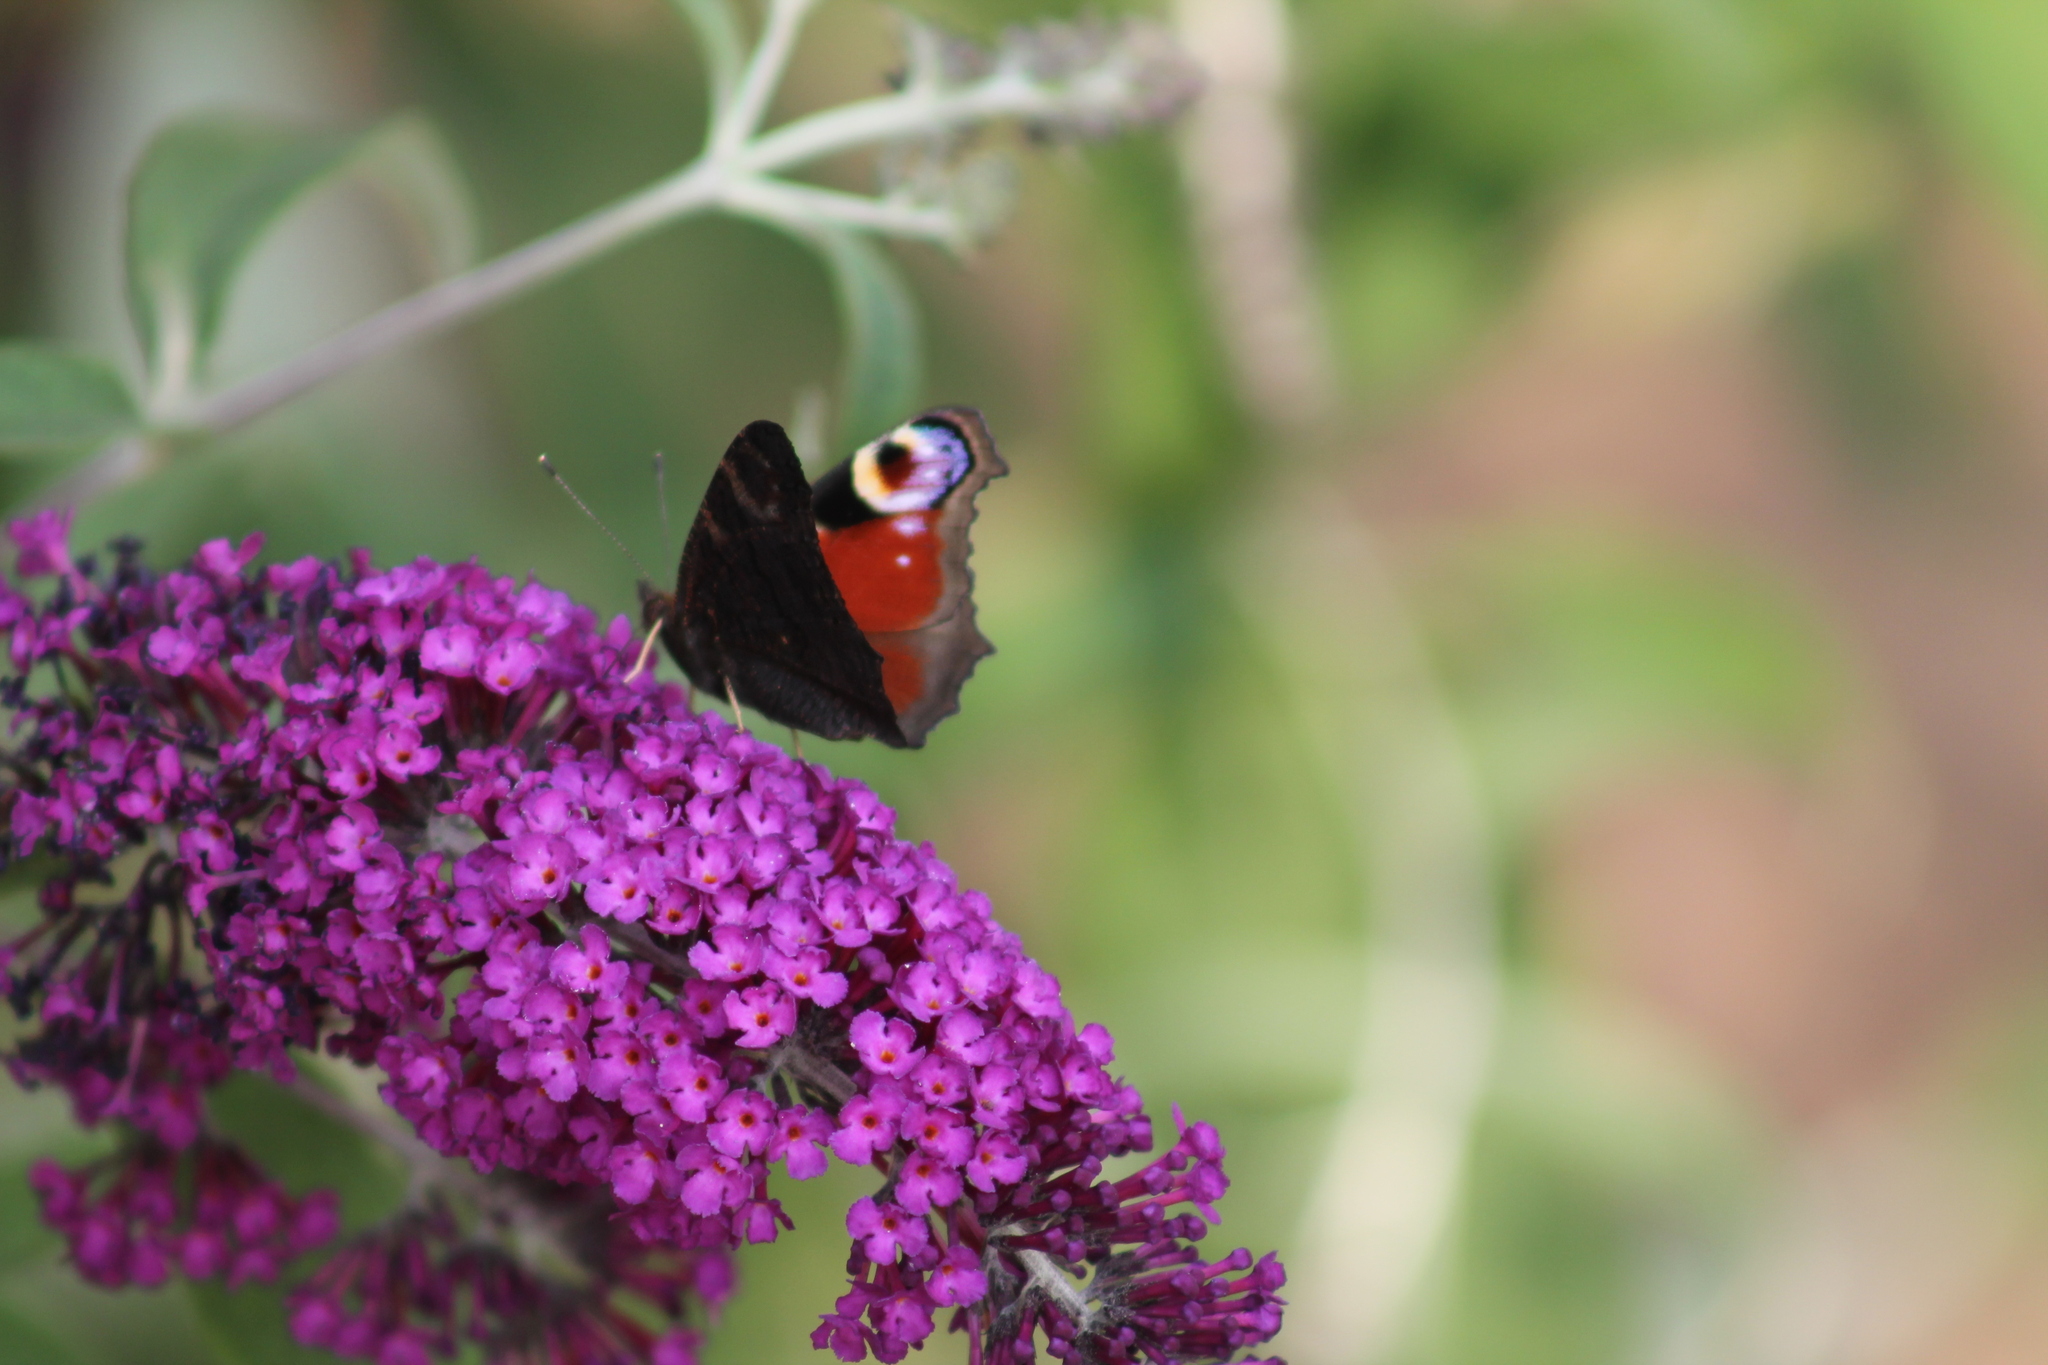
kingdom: Animalia
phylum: Arthropoda
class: Insecta
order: Lepidoptera
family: Nymphalidae
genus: Aglais
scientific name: Aglais io
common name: Peacock
